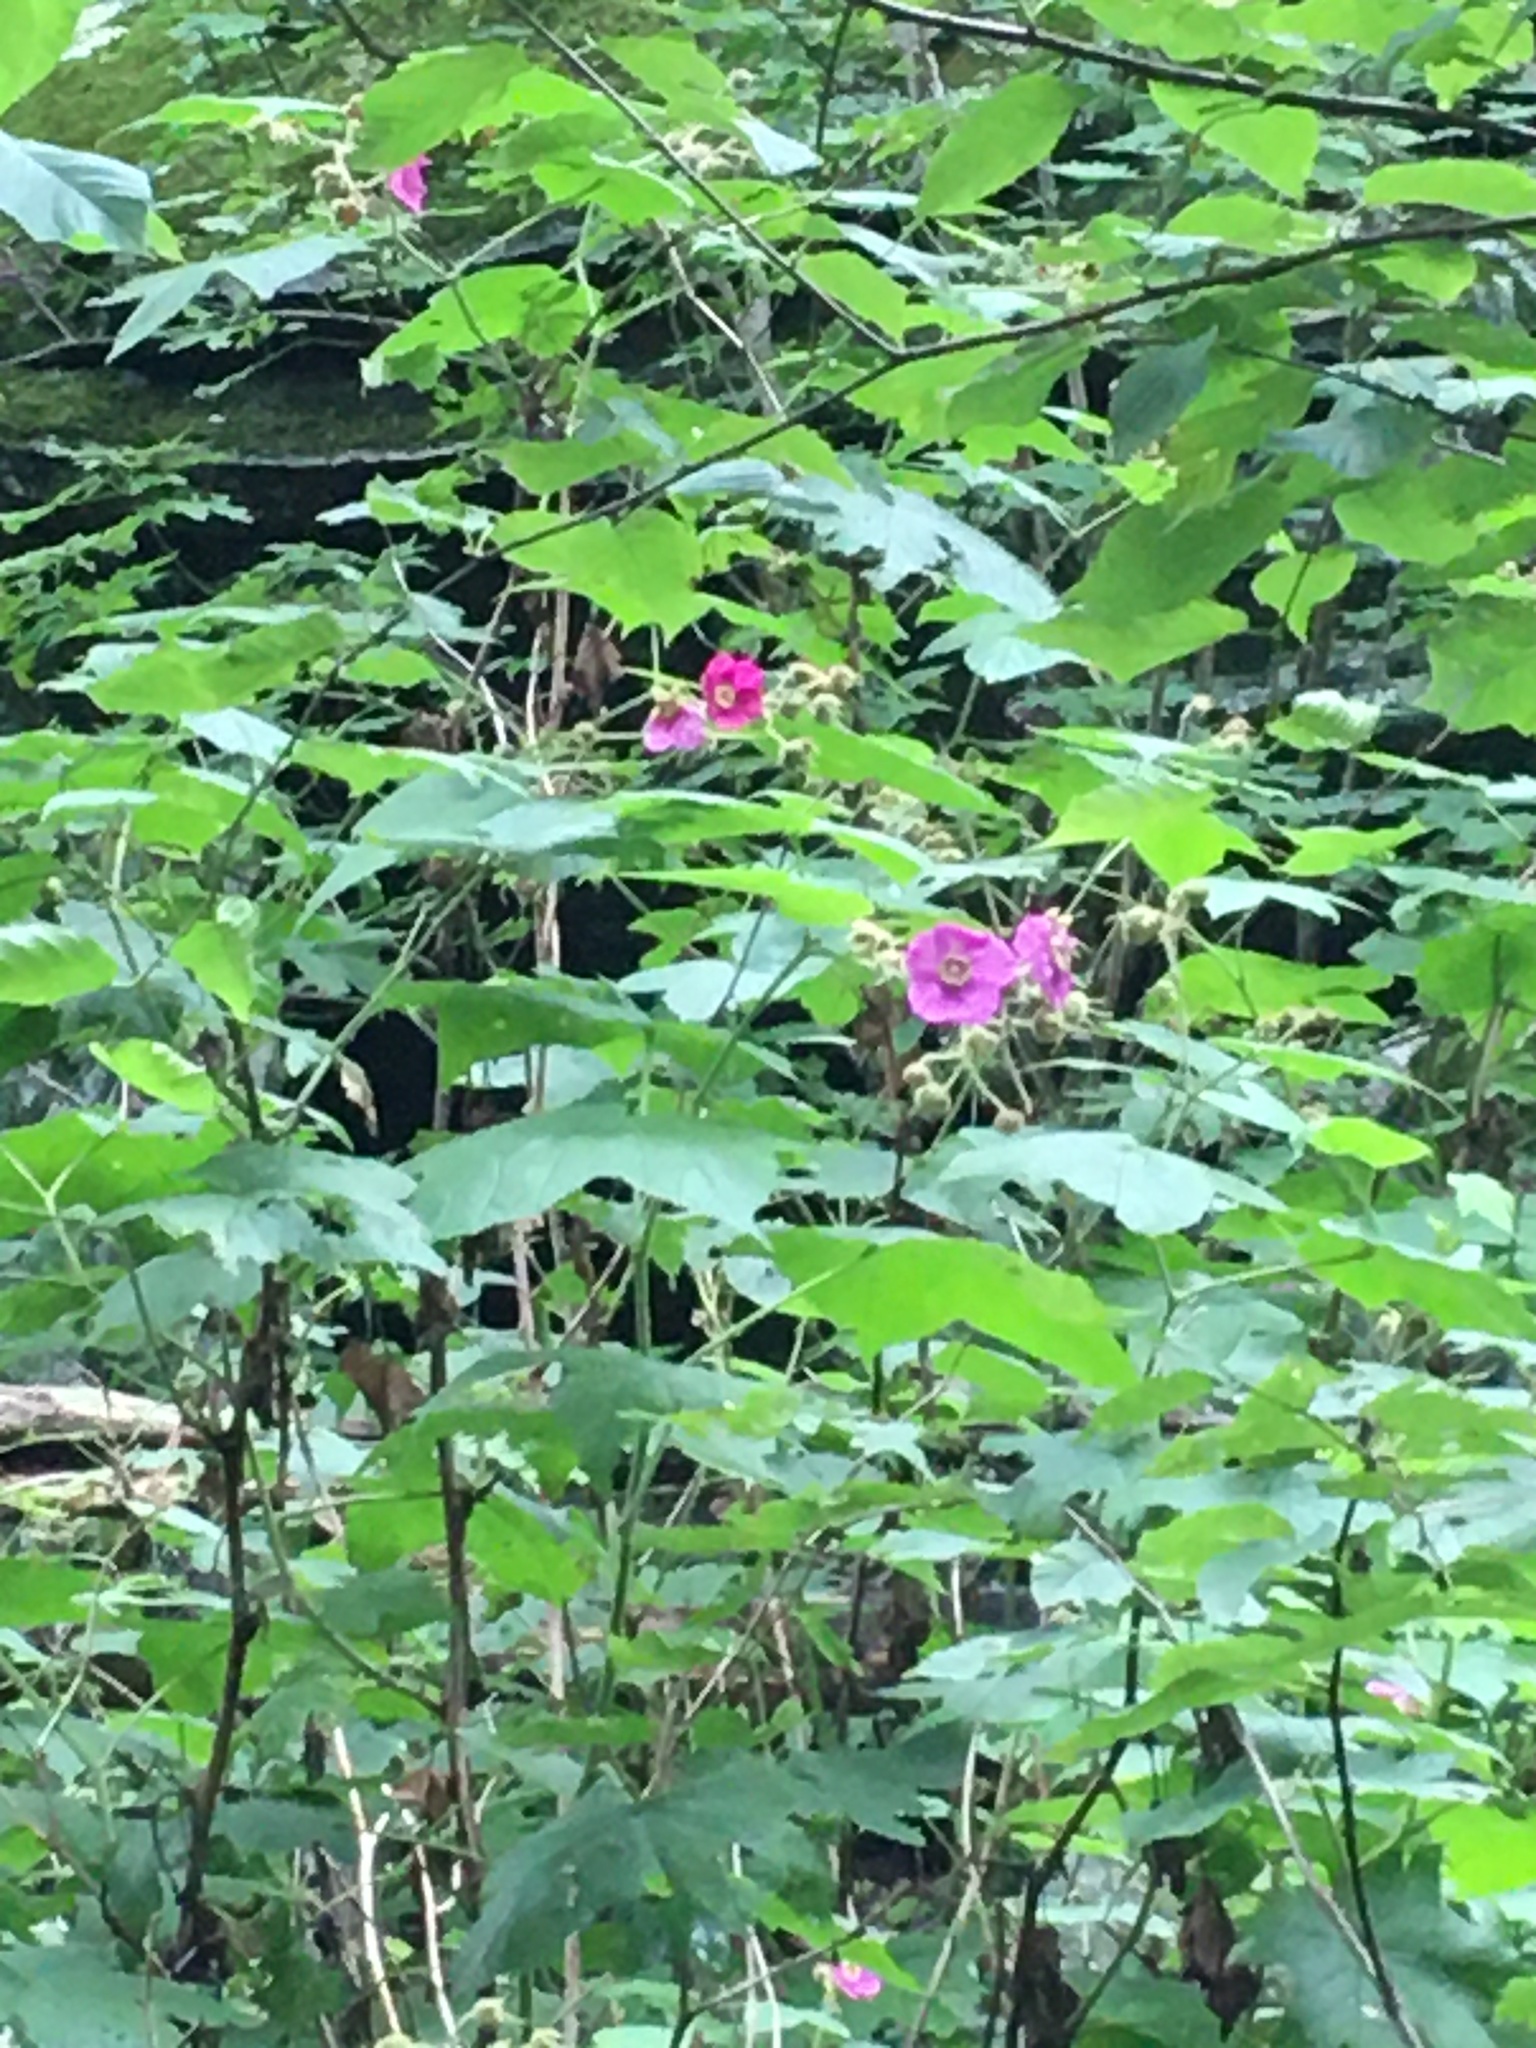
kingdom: Plantae
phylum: Tracheophyta
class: Magnoliopsida
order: Rosales
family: Rosaceae
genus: Rubus
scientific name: Rubus odoratus
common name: Purple-flowered raspberry
